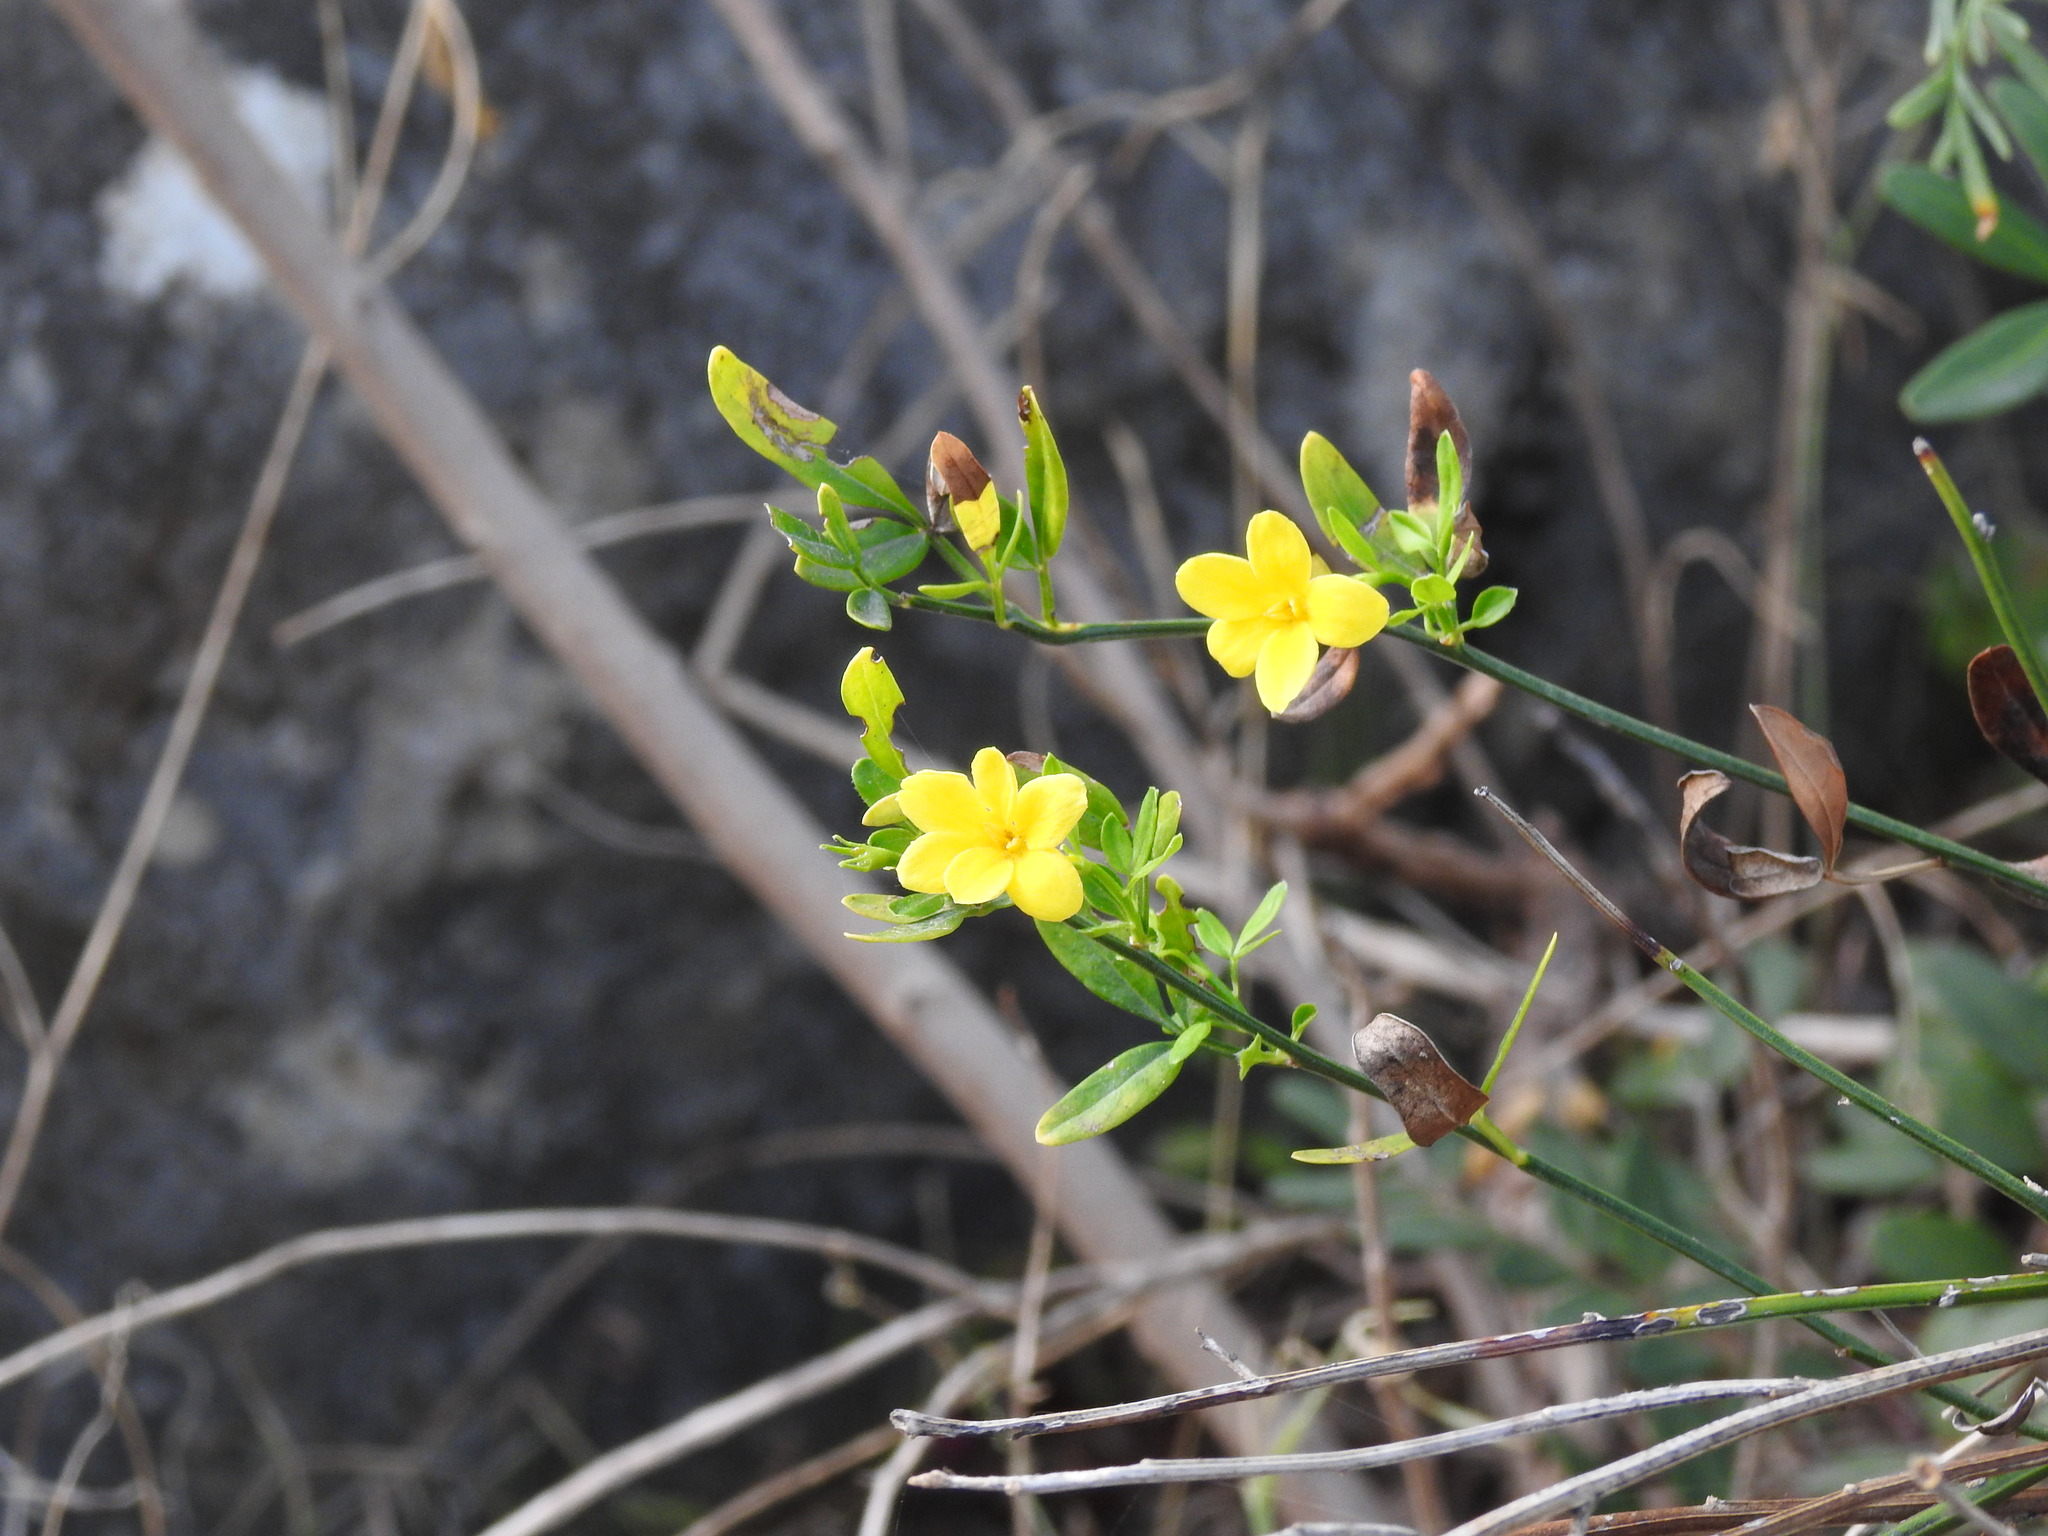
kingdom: Plantae
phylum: Tracheophyta
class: Magnoliopsida
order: Lamiales
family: Oleaceae
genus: Chrysojasminum
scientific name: Chrysojasminum fruticans
